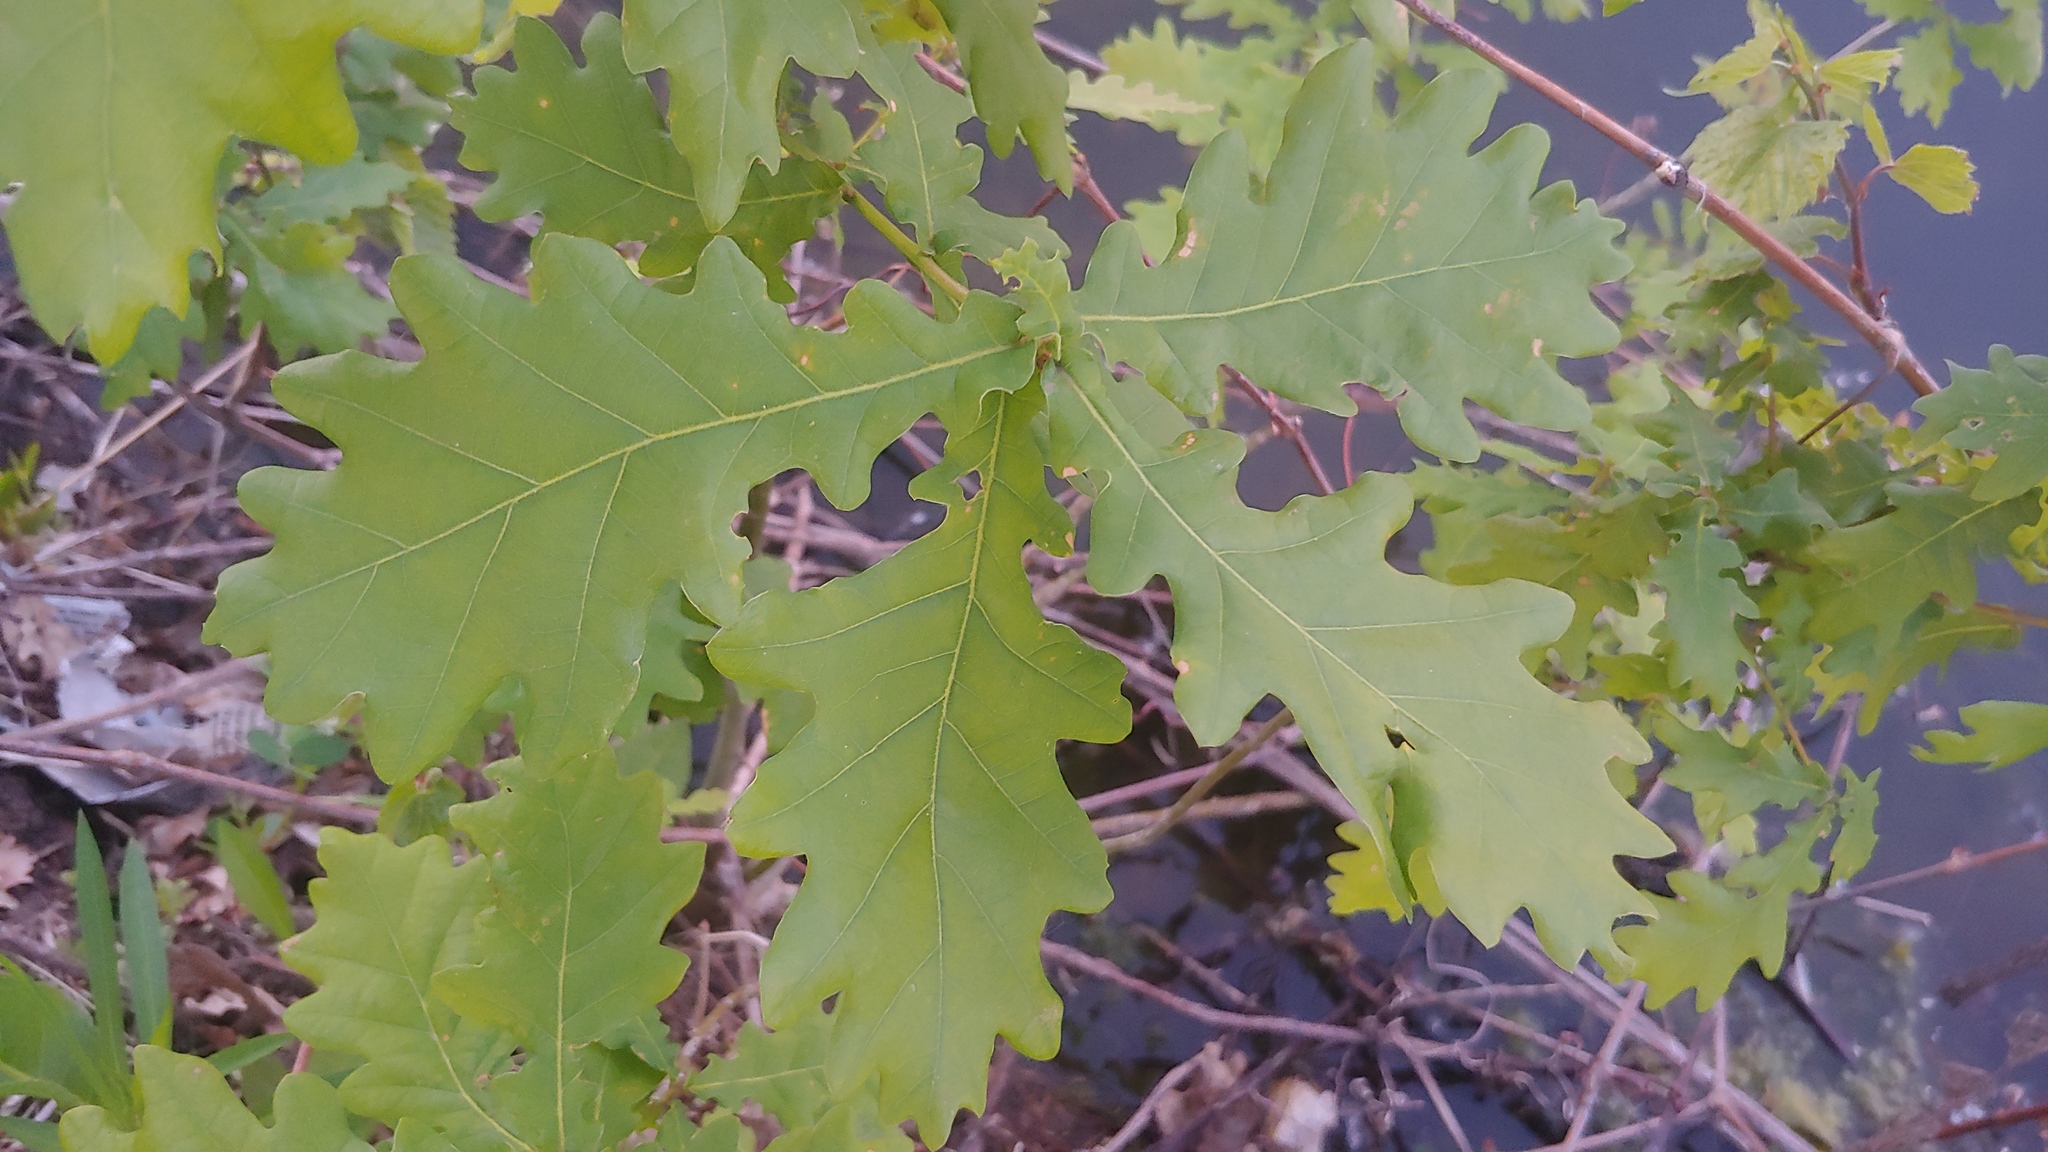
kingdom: Plantae
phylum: Tracheophyta
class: Magnoliopsida
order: Fagales
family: Fagaceae
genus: Quercus
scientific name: Quercus robur
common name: Pedunculate oak
